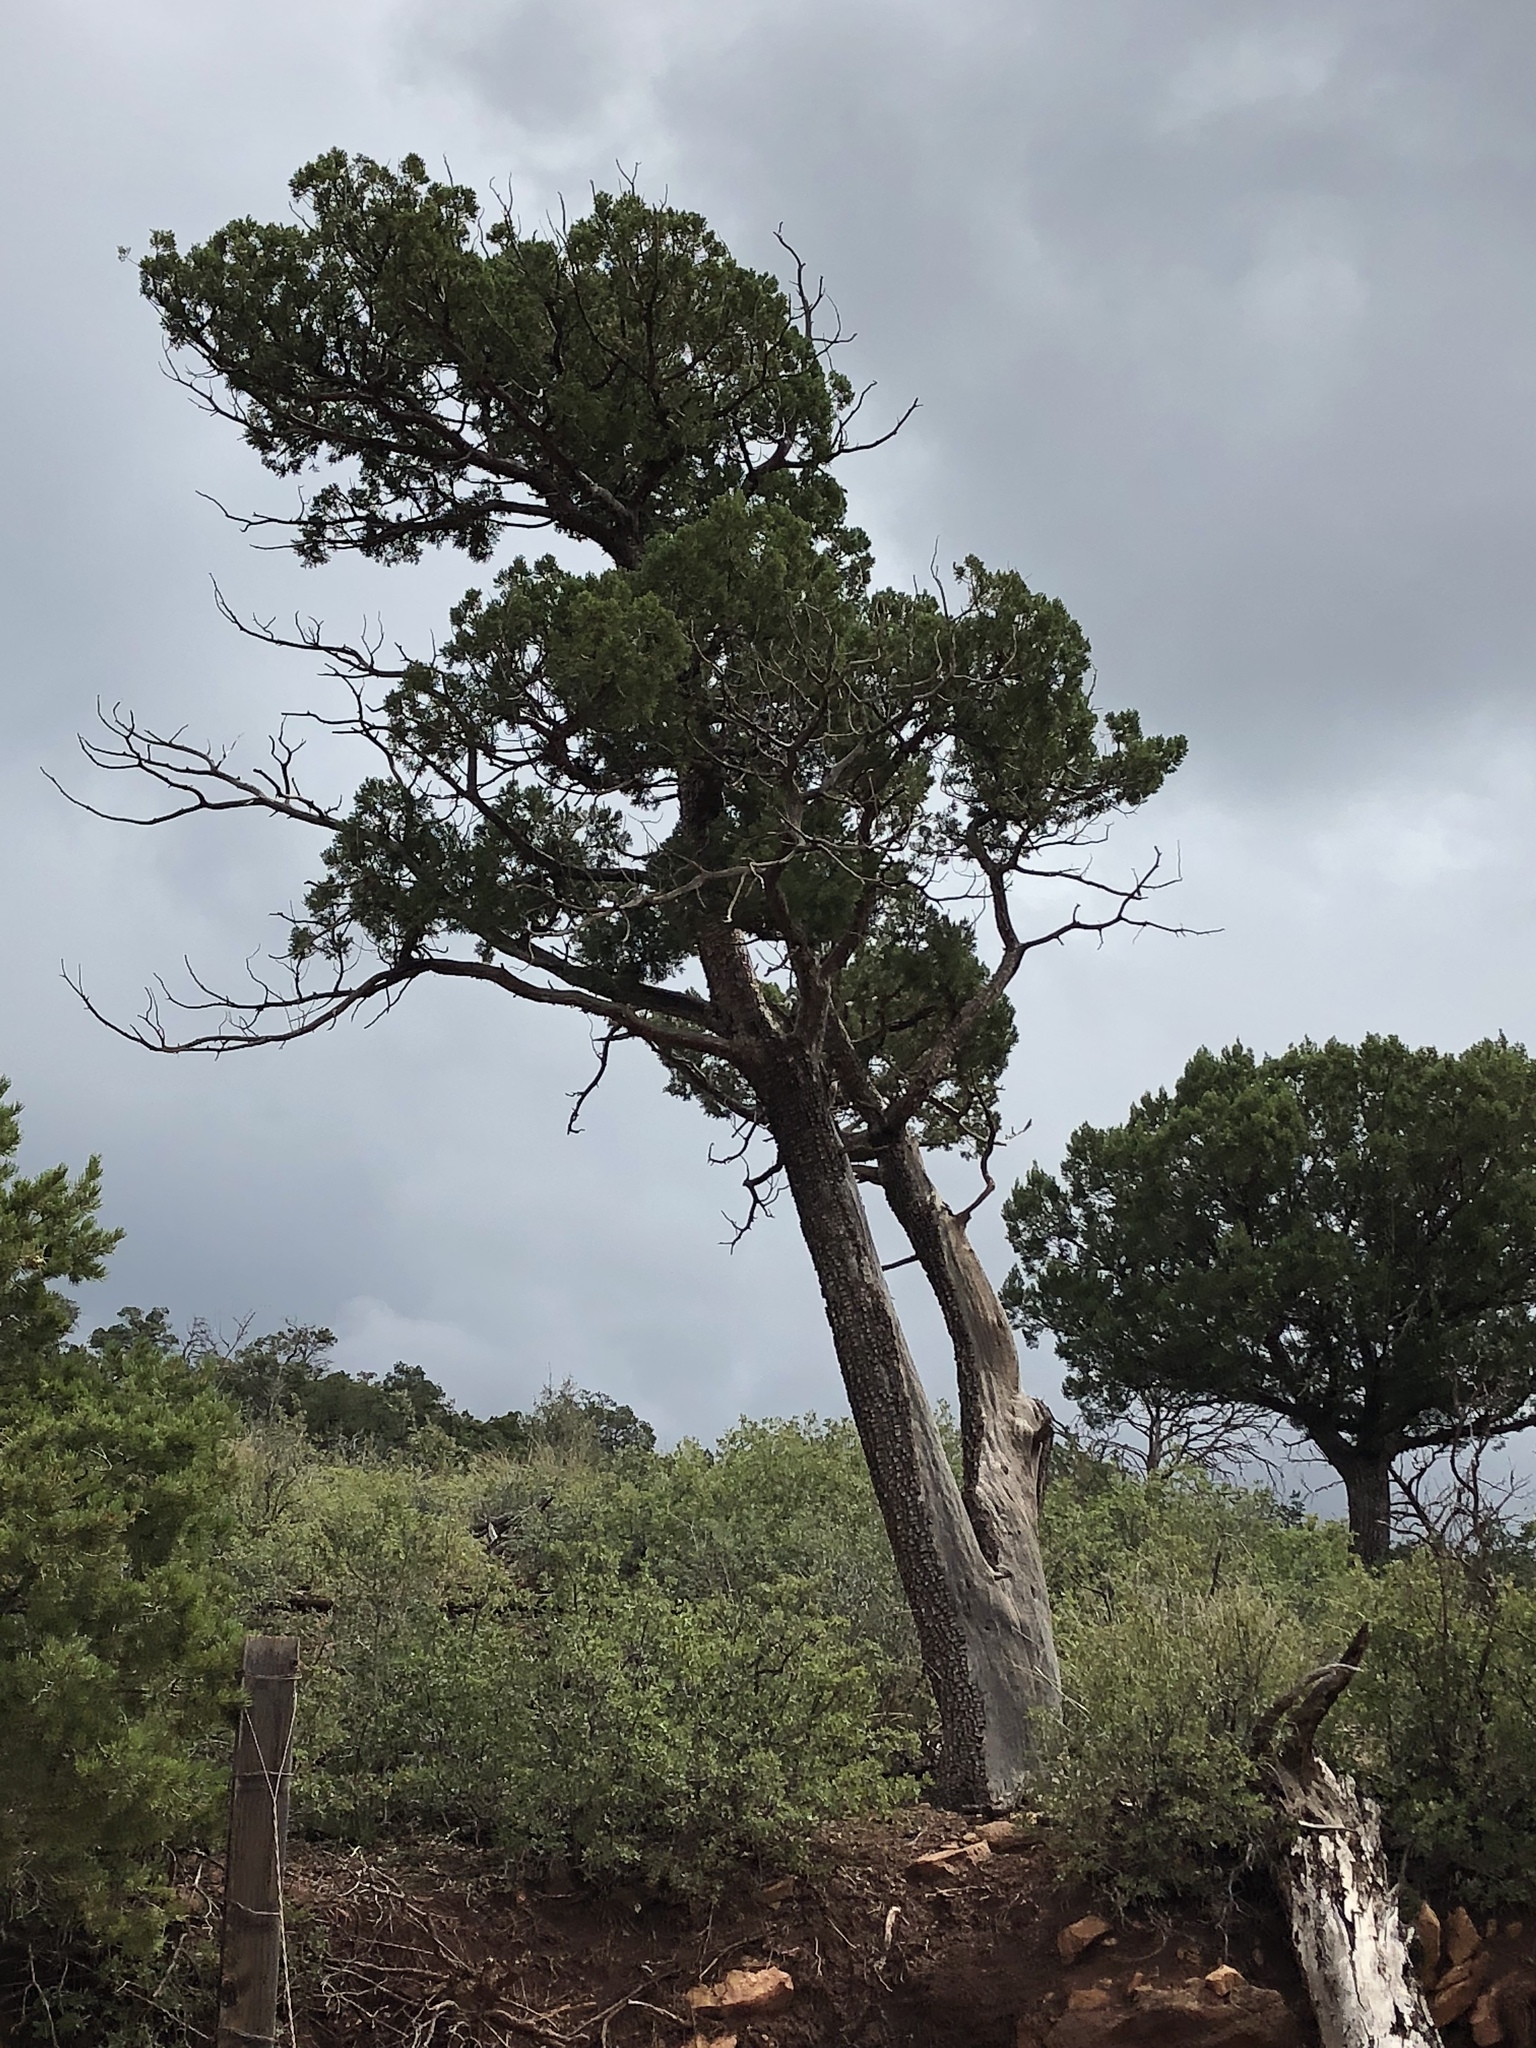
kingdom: Plantae
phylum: Tracheophyta
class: Pinopsida
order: Pinales
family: Cupressaceae
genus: Juniperus
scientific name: Juniperus deppeana
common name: Alligator juniper
